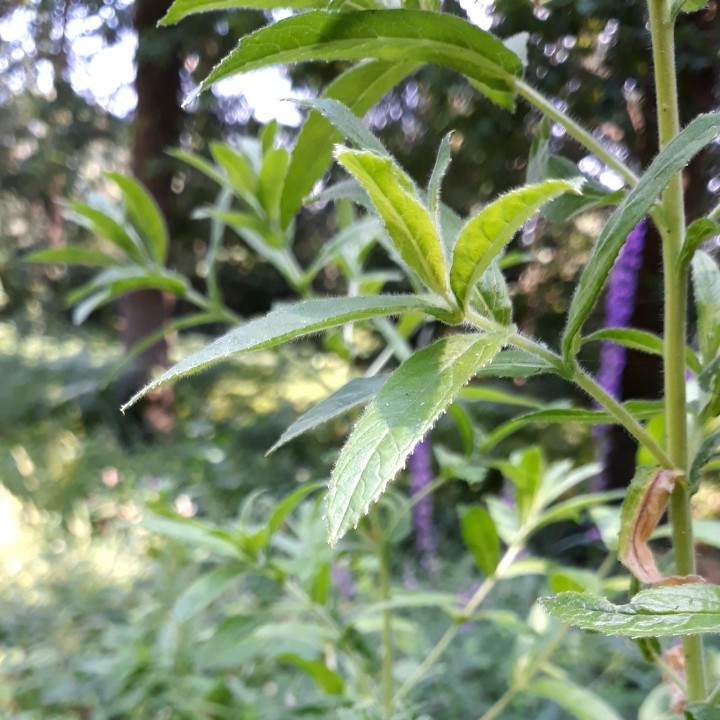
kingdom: Plantae
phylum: Tracheophyta
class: Magnoliopsida
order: Myrtales
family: Onagraceae
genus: Epilobium
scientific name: Epilobium hirsutum
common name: Great willowherb
